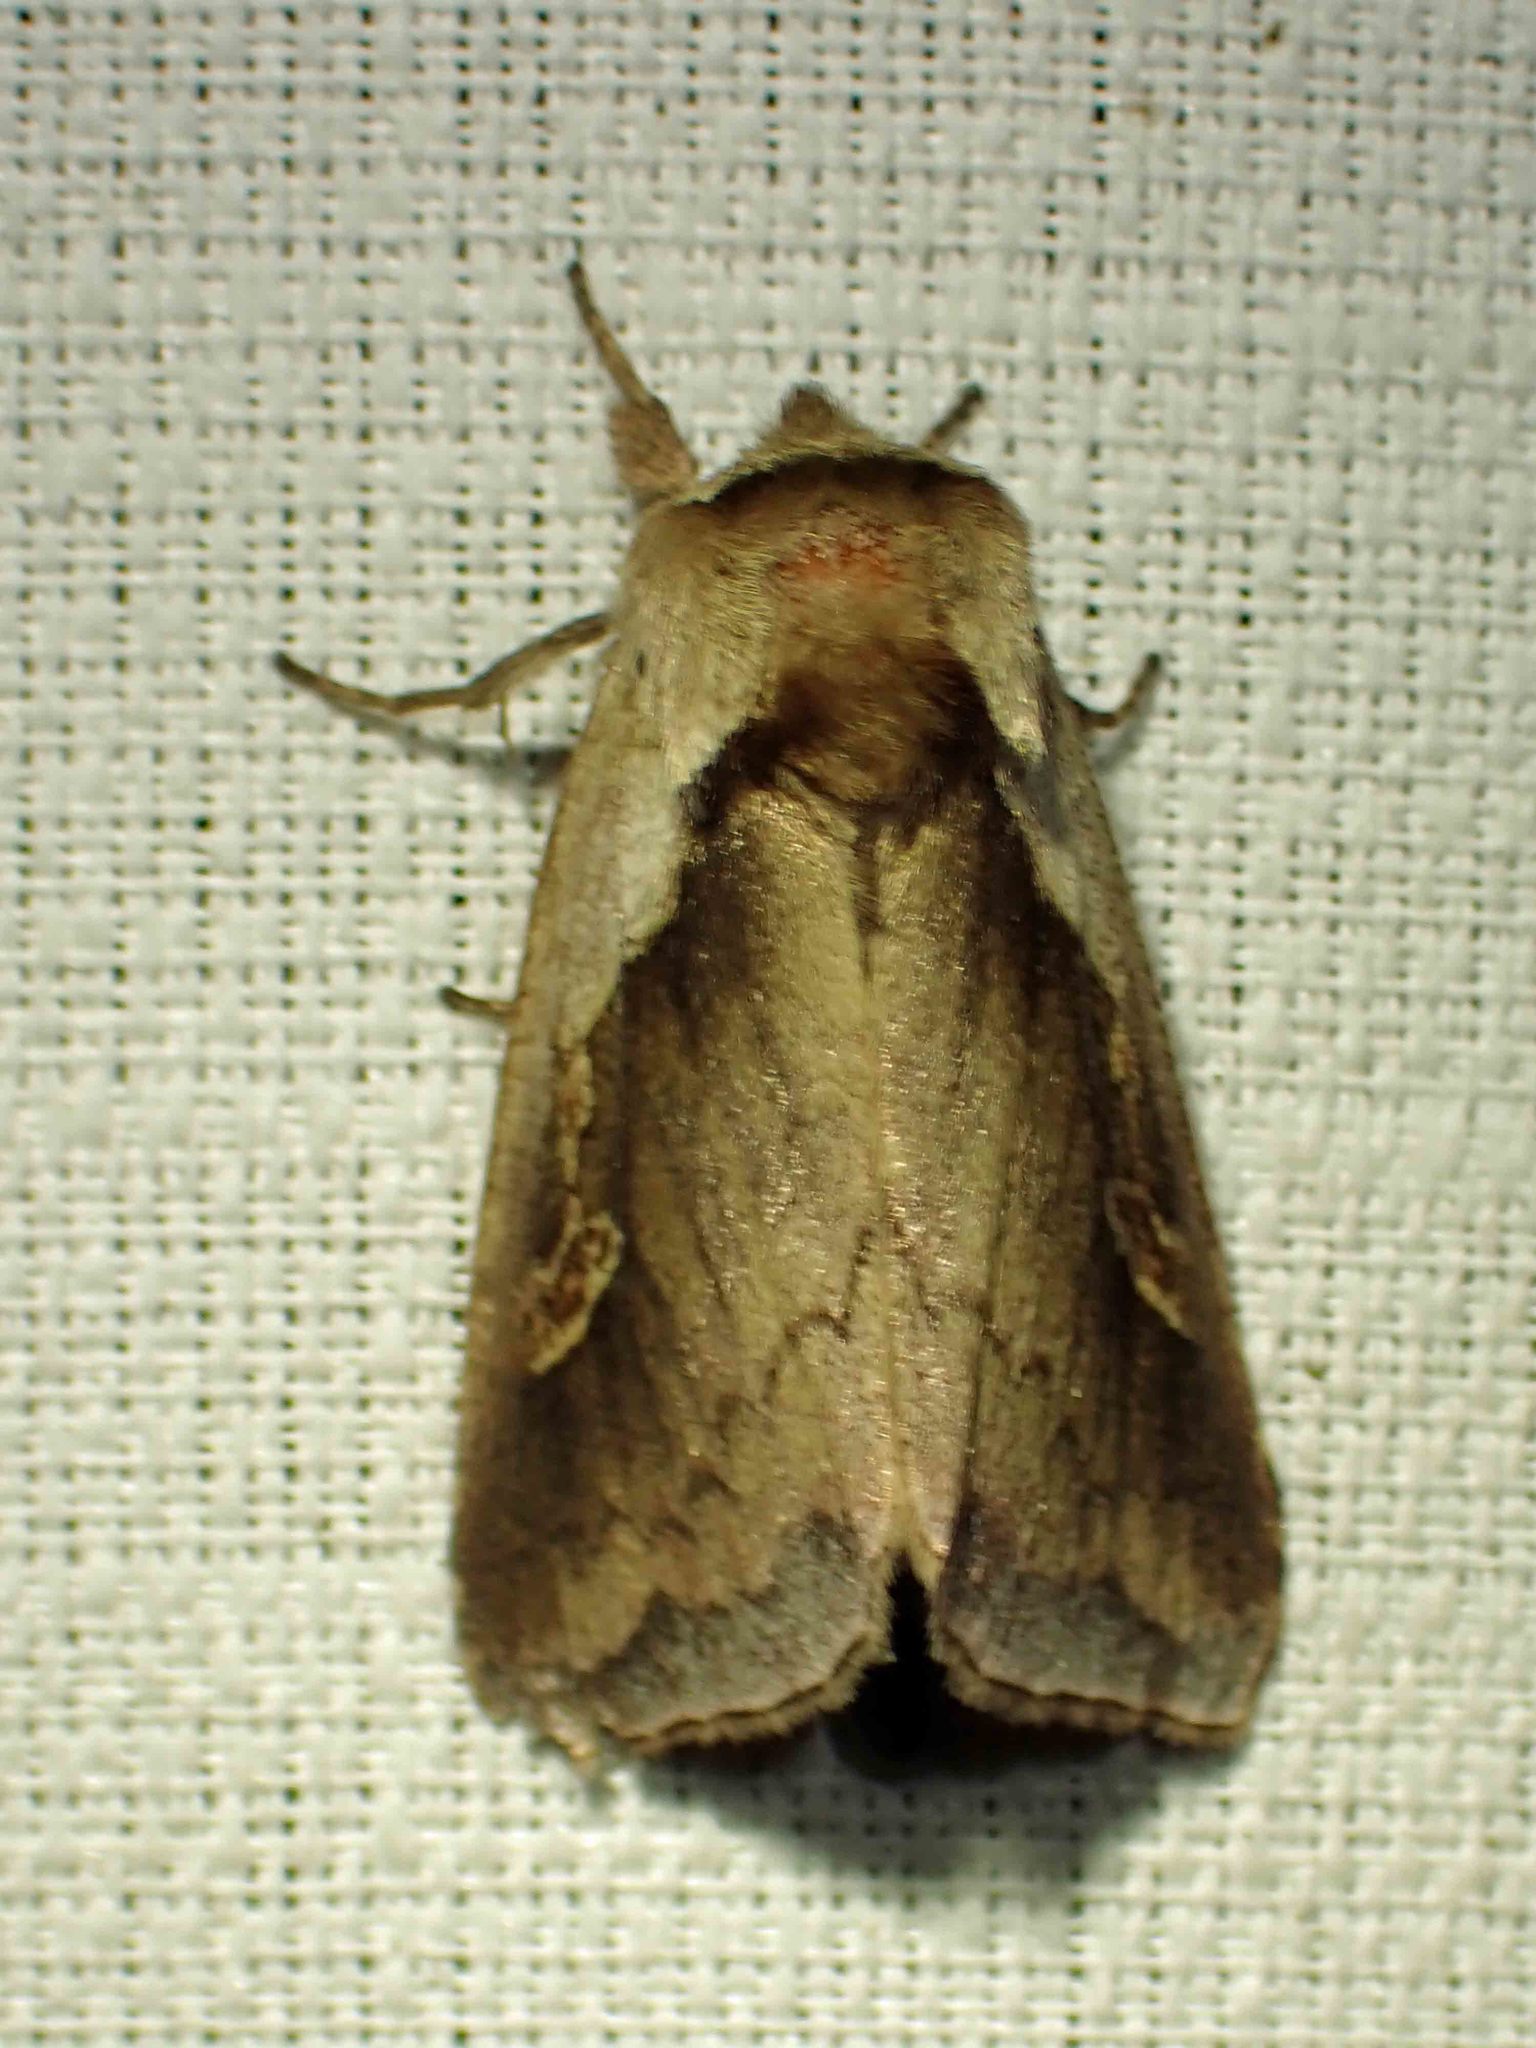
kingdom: Animalia
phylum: Arthropoda
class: Insecta
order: Lepidoptera
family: Noctuidae
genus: Bellura
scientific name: Bellura obliqua
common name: Cattail borer moth
